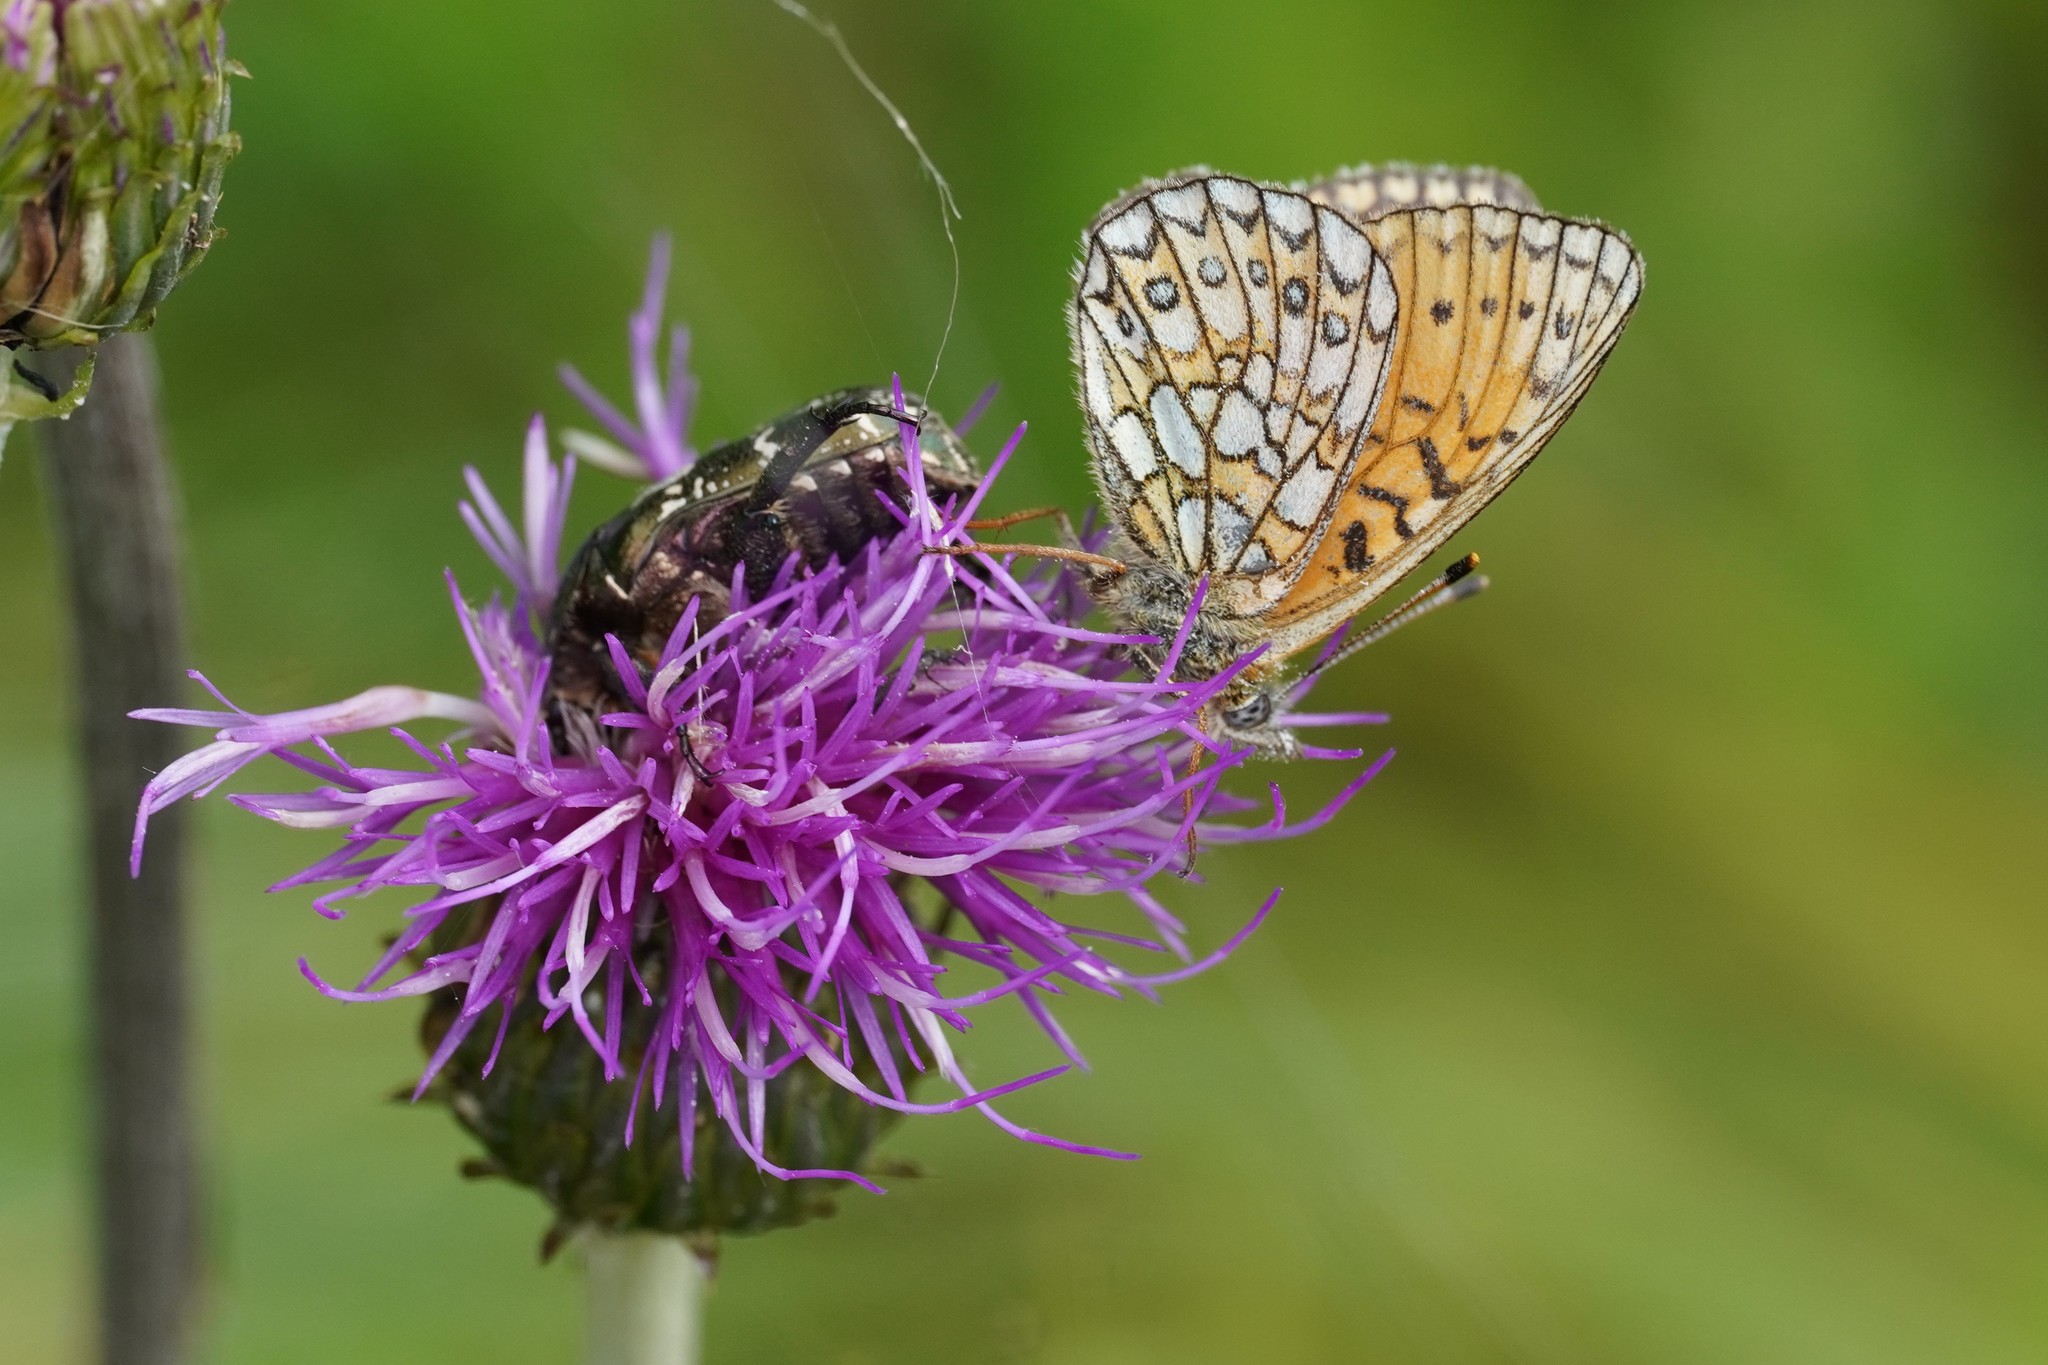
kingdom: Animalia
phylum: Arthropoda
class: Insecta
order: Lepidoptera
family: Nymphalidae
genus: Boloria
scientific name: Boloria eunomia
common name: Bog fritillary
